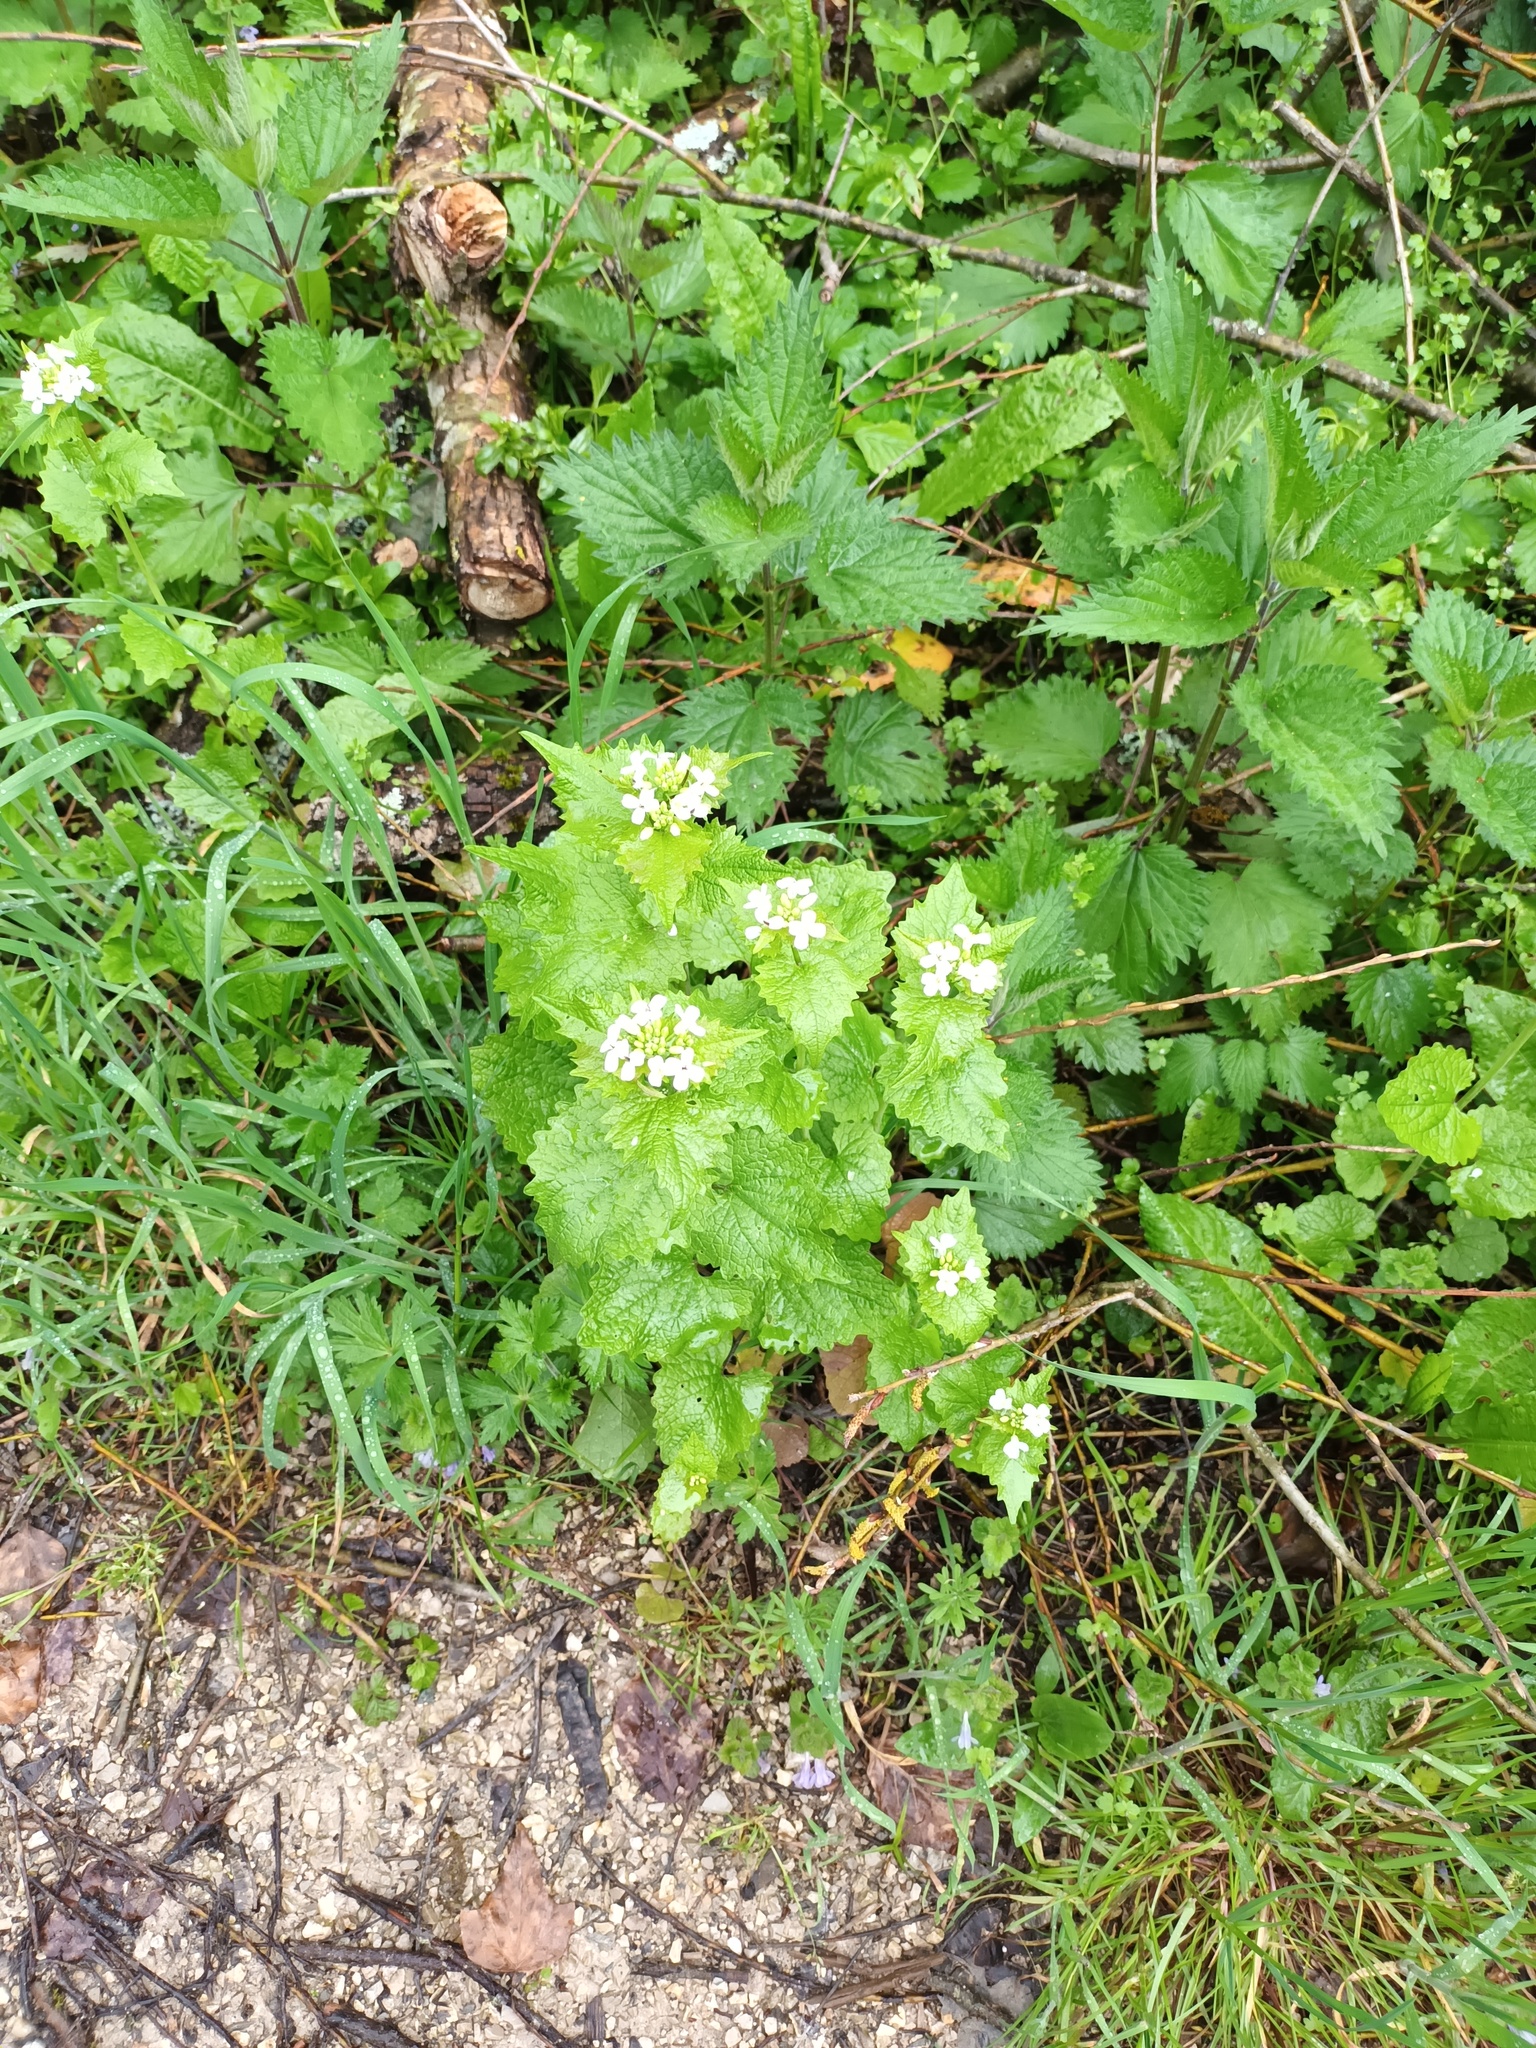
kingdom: Plantae
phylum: Tracheophyta
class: Magnoliopsida
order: Brassicales
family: Brassicaceae
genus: Alliaria
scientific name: Alliaria petiolata
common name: Garlic mustard
